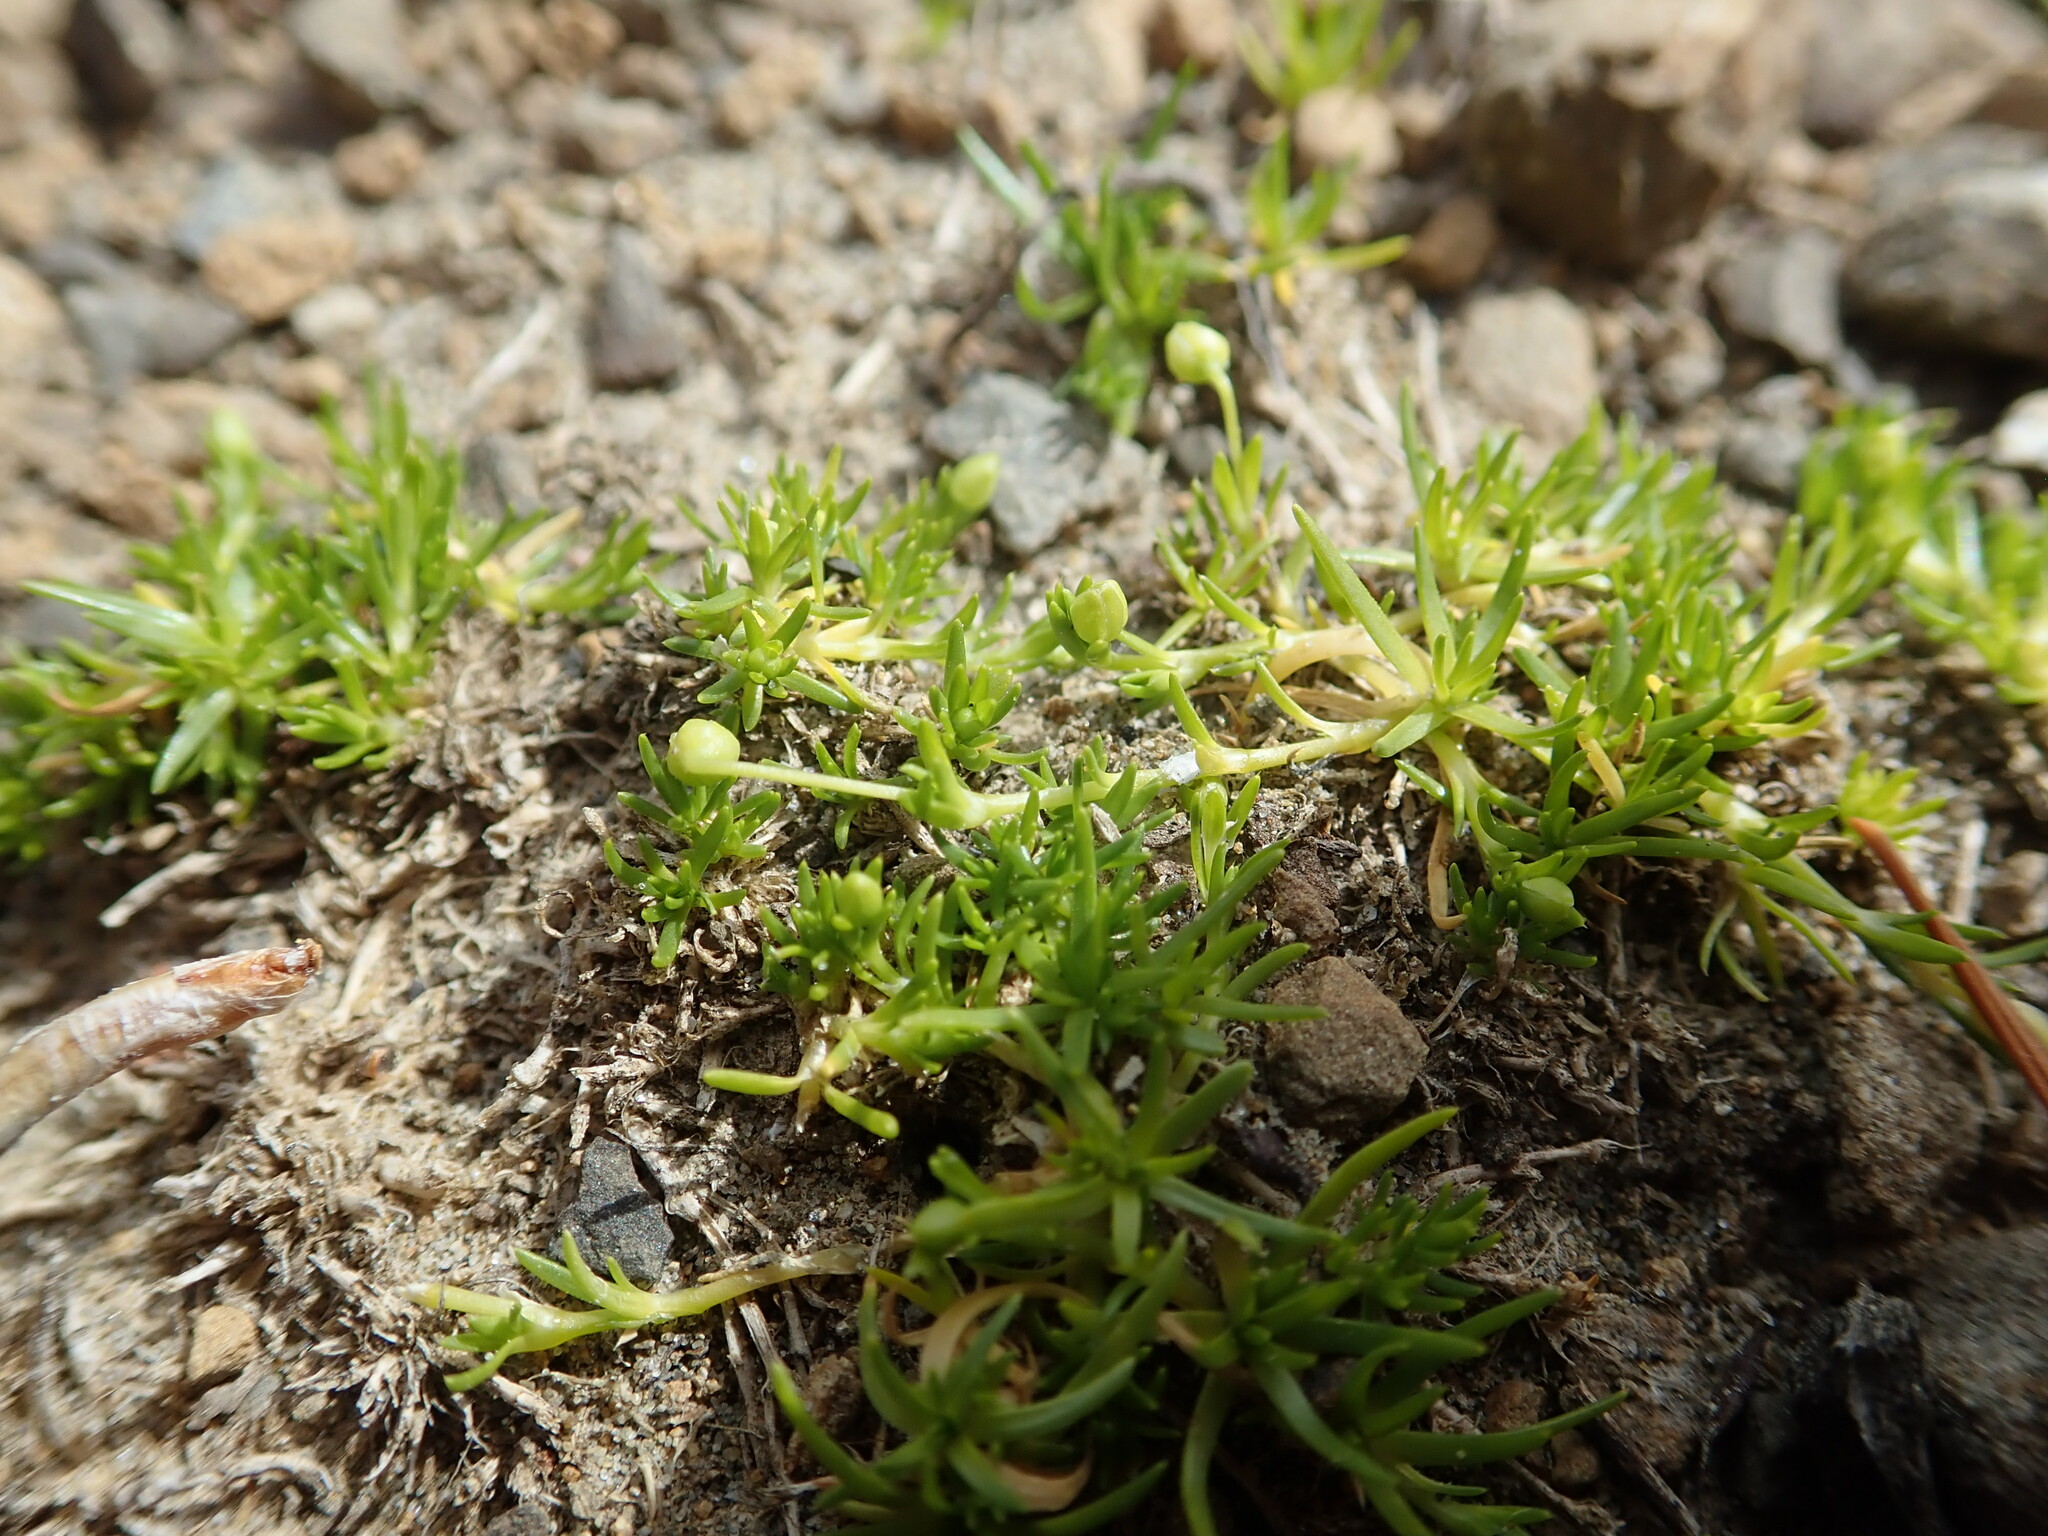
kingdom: Plantae
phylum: Tracheophyta
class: Magnoliopsida
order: Caryophyllales
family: Caryophyllaceae
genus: Sagina
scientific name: Sagina procumbens
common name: Procumbent pearlwort
